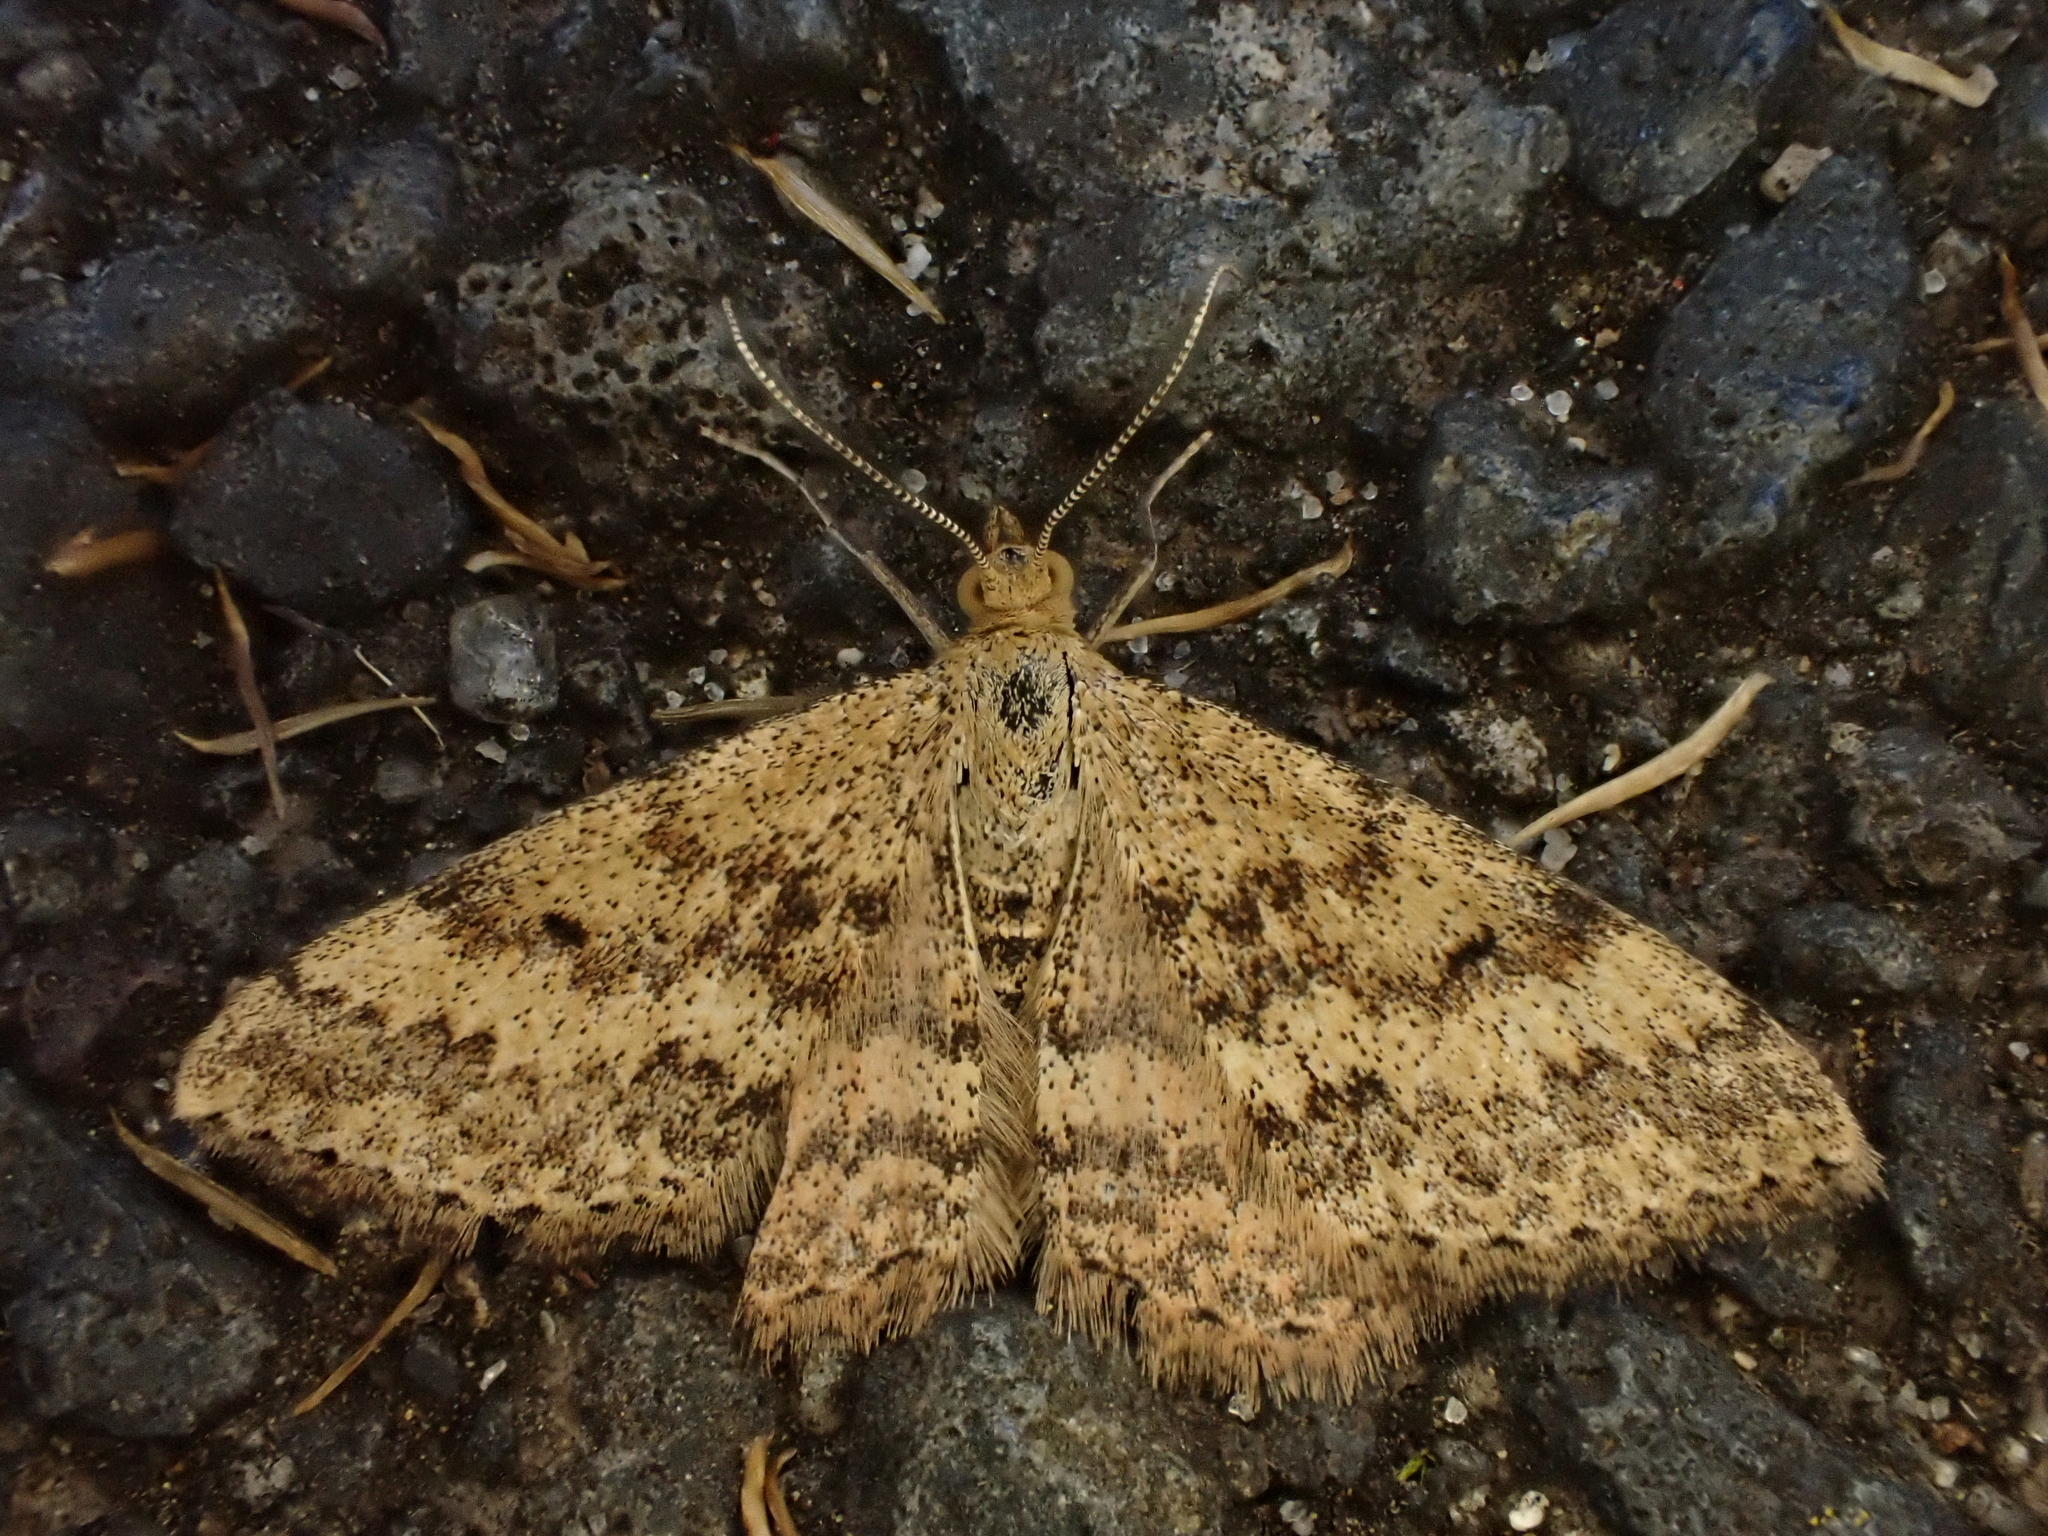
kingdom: Animalia
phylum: Arthropoda
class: Insecta
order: Lepidoptera
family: Geometridae
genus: Scopula
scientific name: Scopula rubraria
